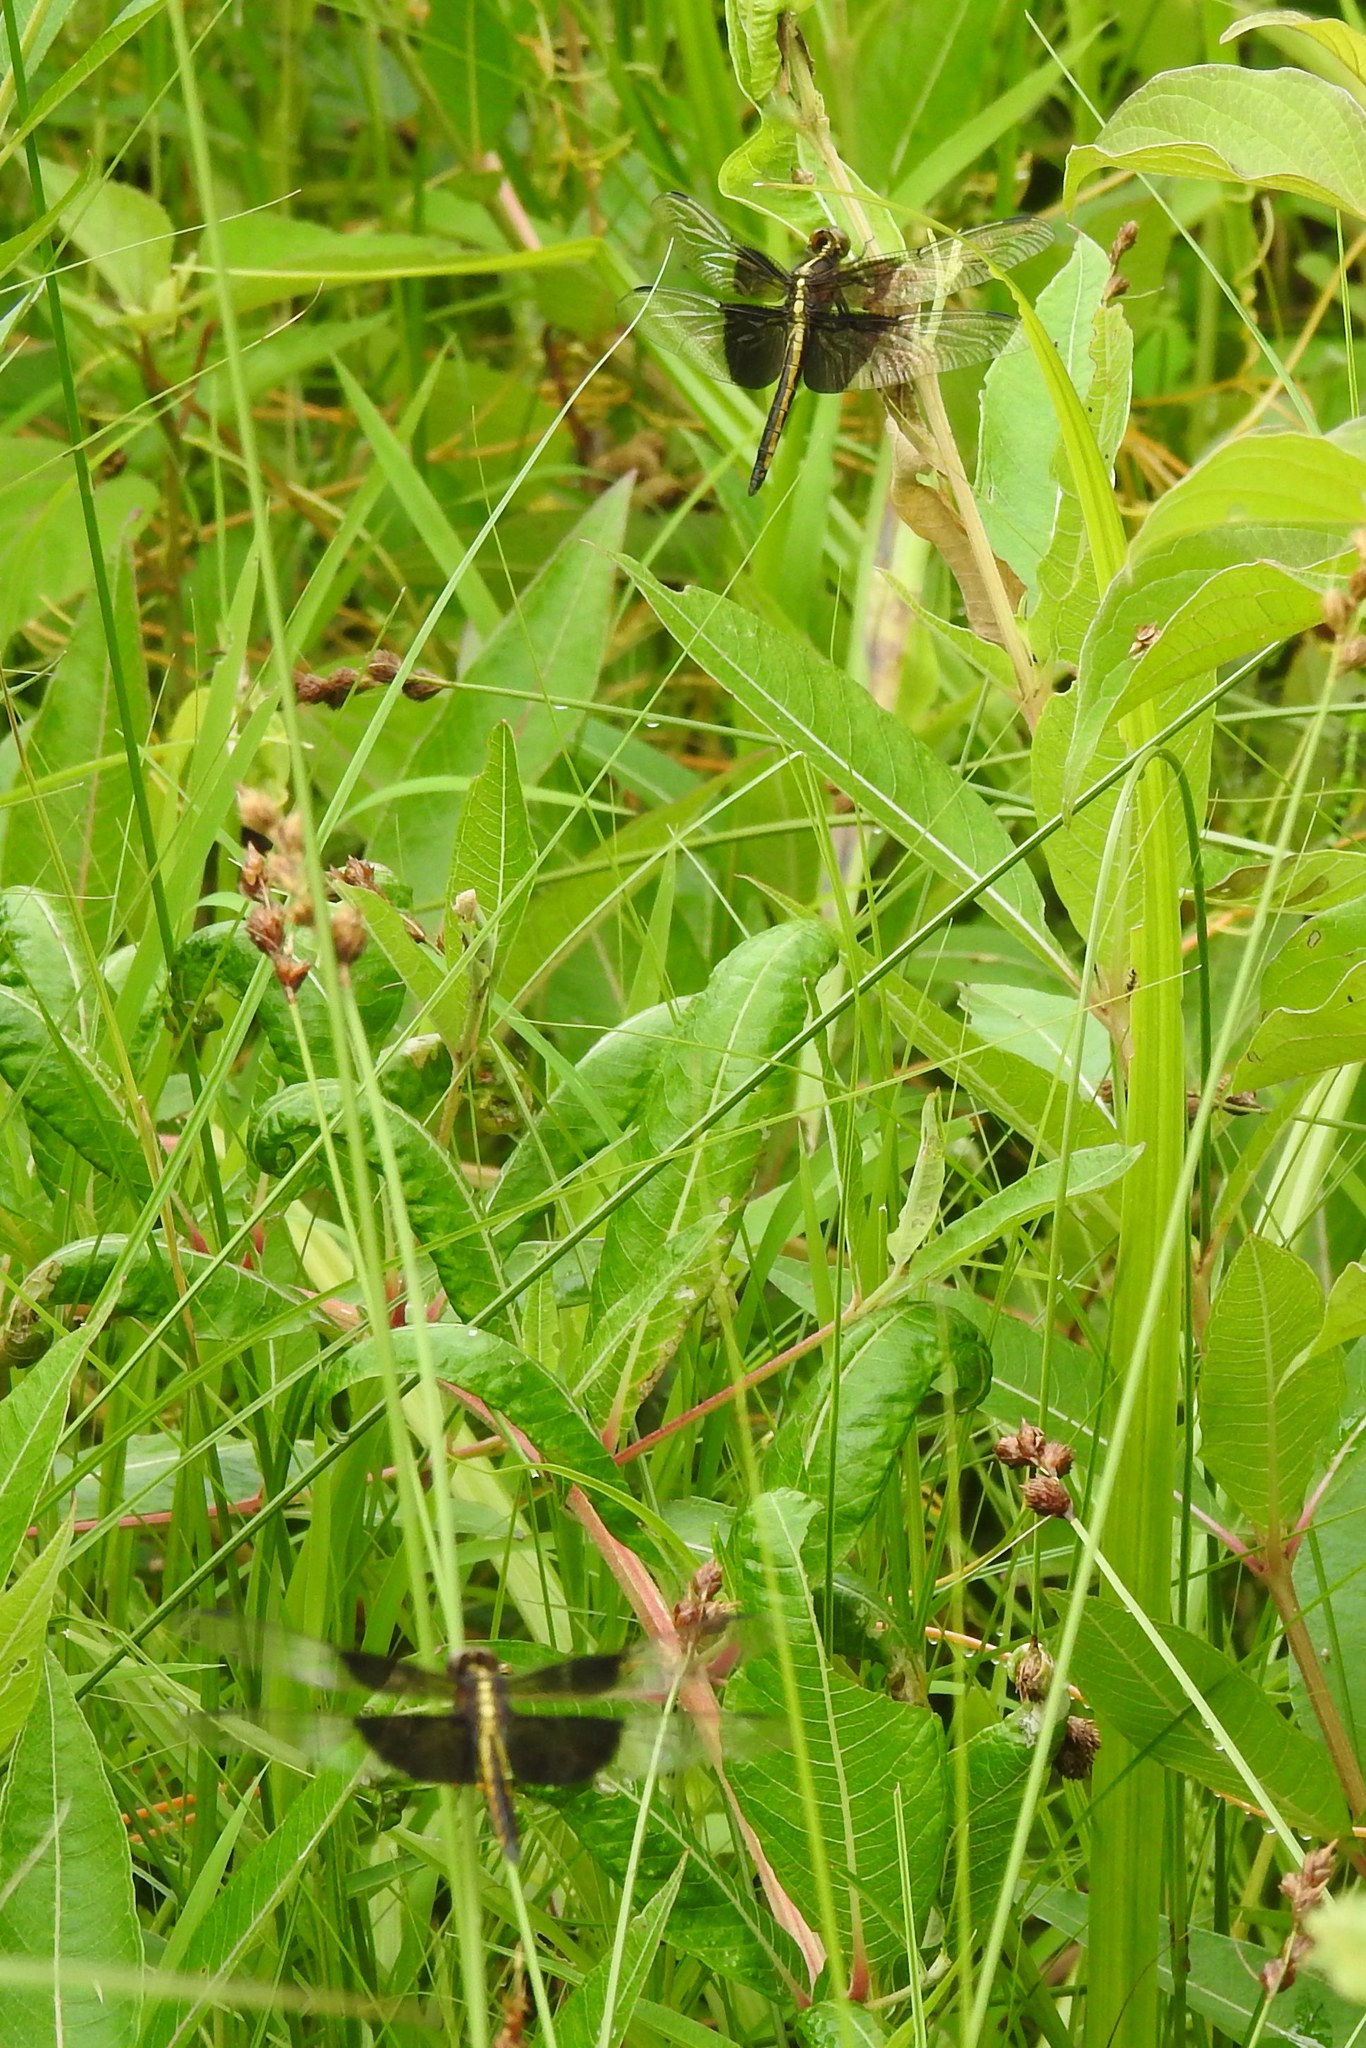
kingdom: Animalia
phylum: Arthropoda
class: Insecta
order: Odonata
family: Libellulidae
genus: Libellula
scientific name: Libellula luctuosa
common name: Widow skimmer
